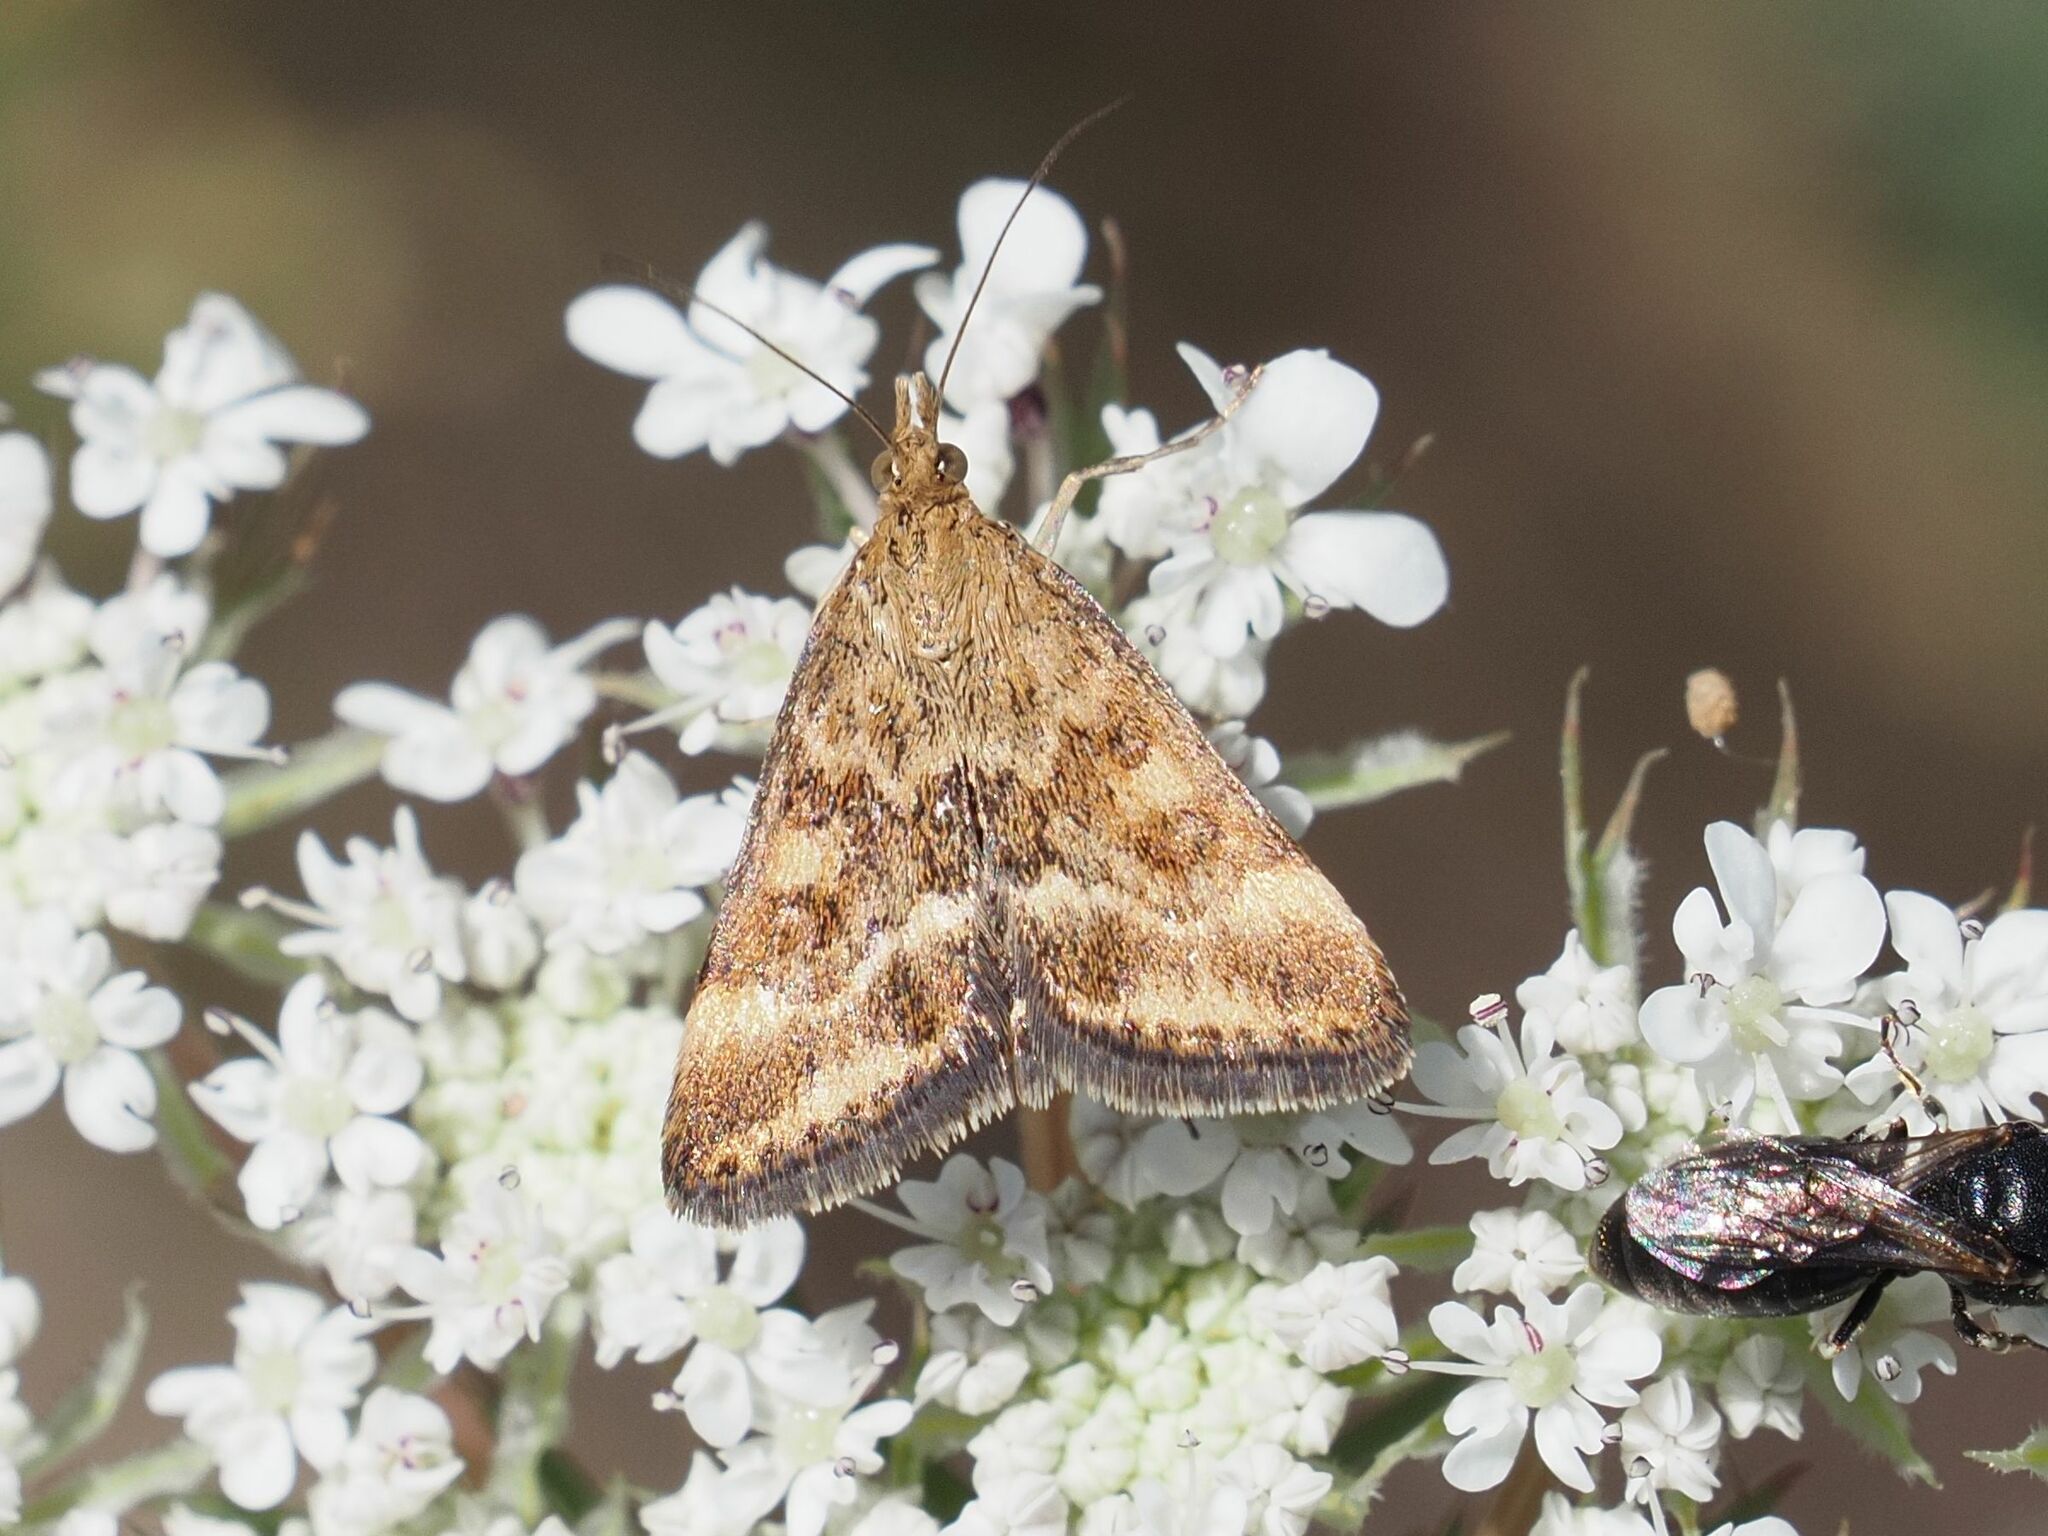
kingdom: Animalia
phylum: Arthropoda
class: Insecta
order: Lepidoptera
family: Crambidae
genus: Pyrausta
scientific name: Pyrausta despicata
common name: Straw-barred pearl
